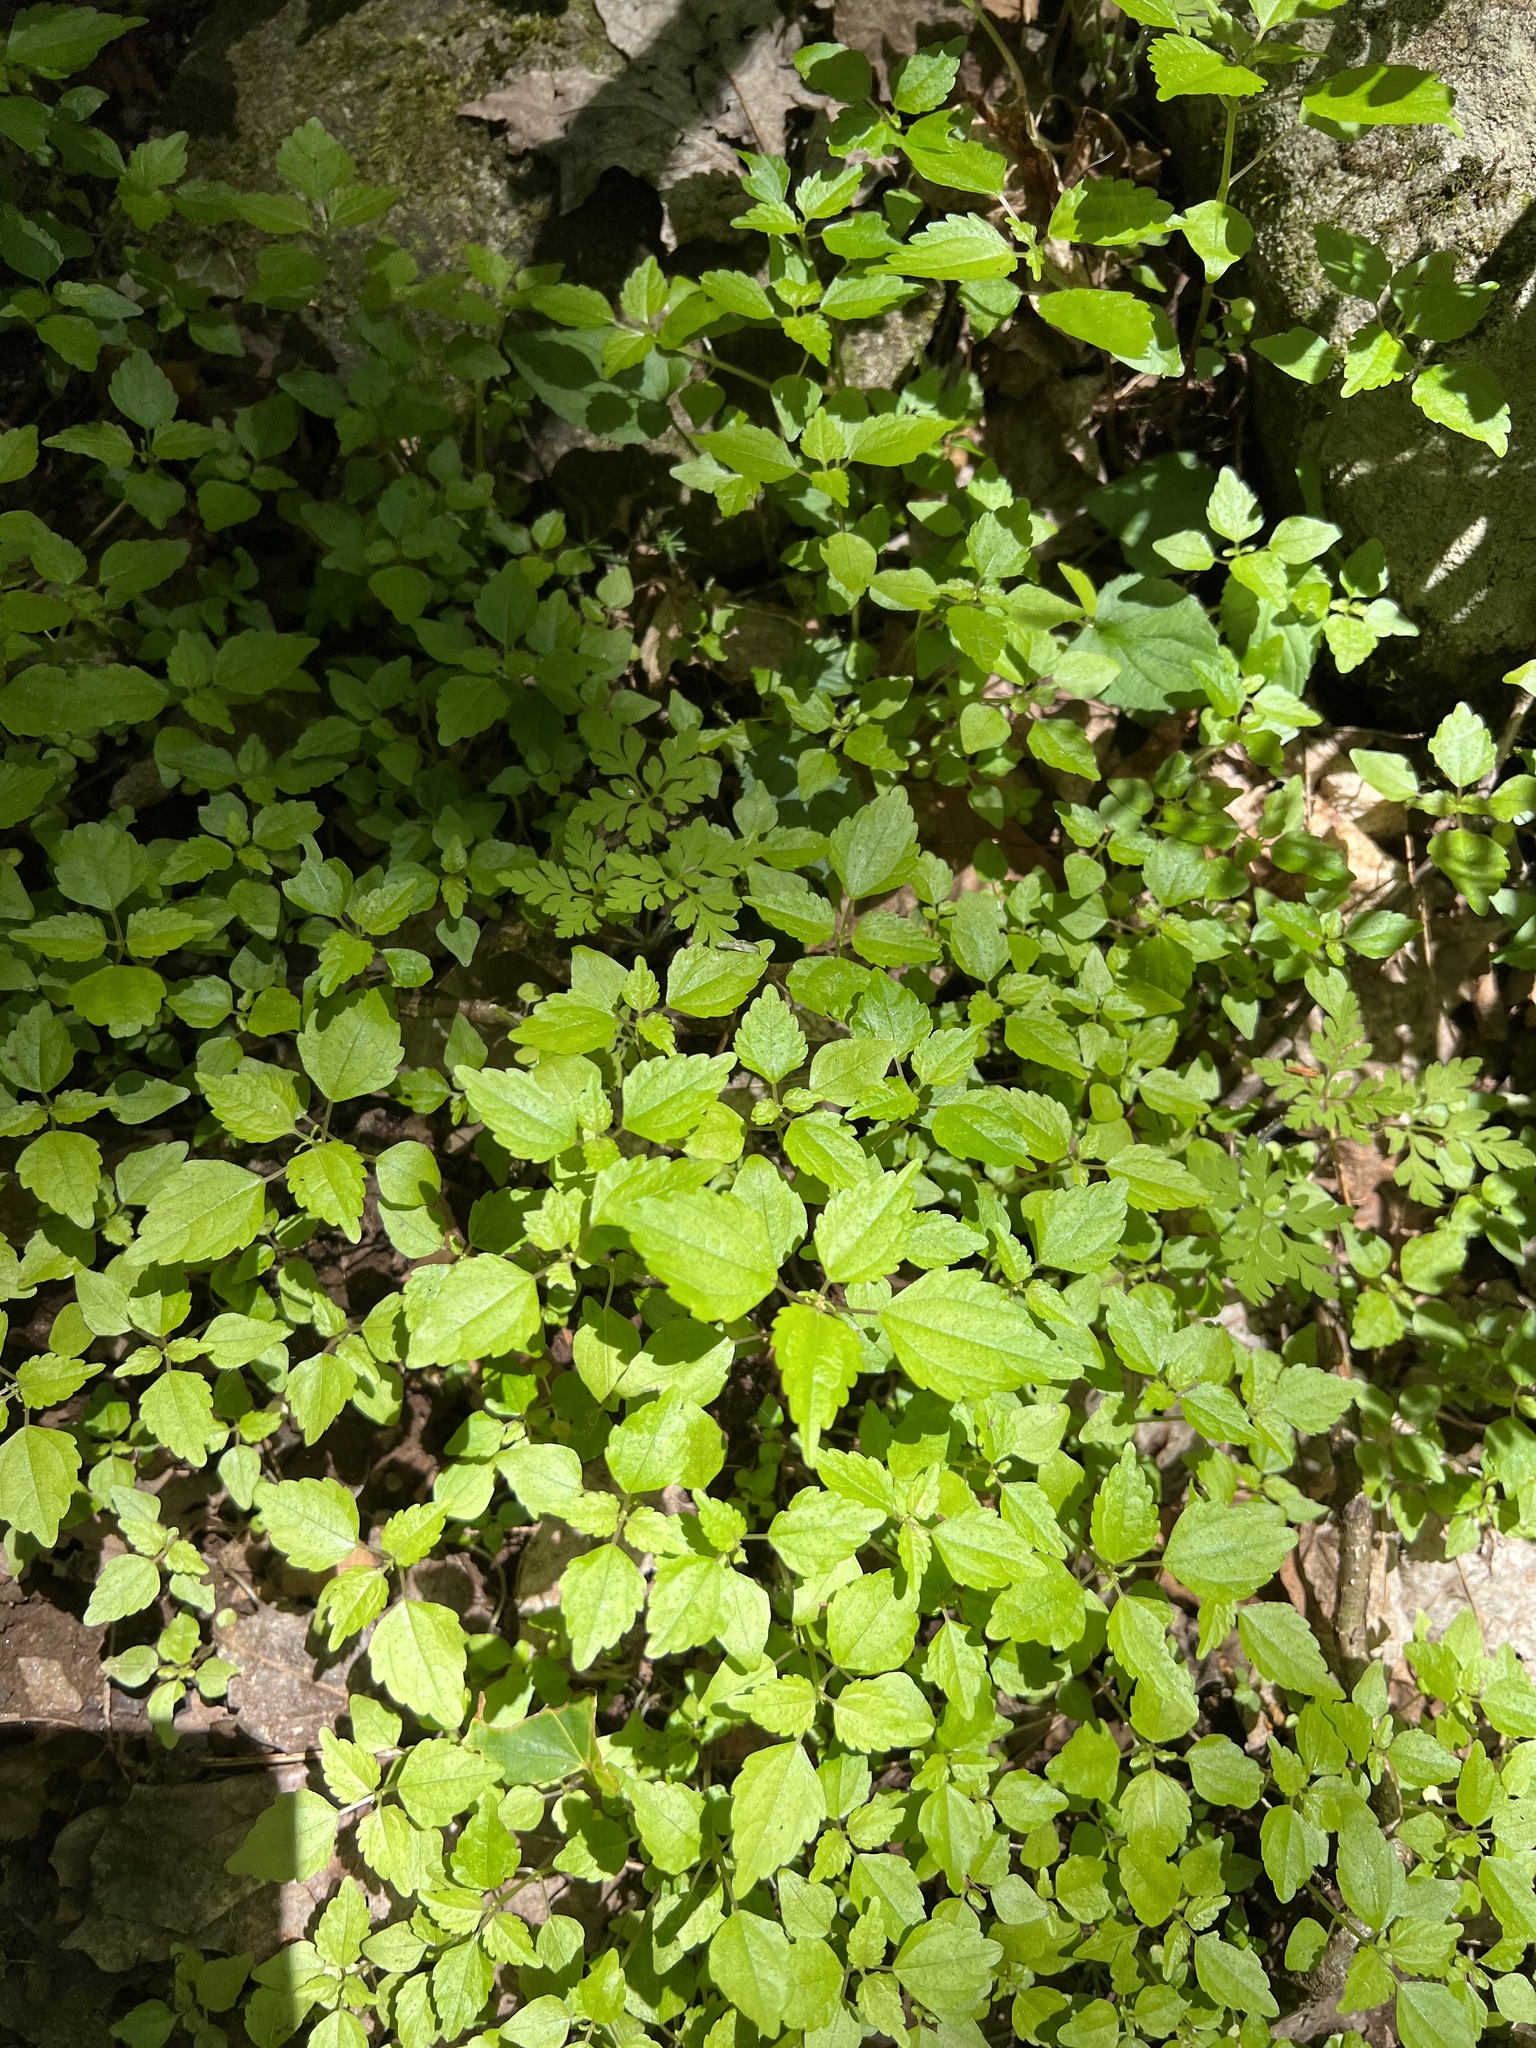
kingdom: Plantae
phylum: Tracheophyta
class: Magnoliopsida
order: Rosales
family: Urticaceae
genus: Pilea
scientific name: Pilea pumila
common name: Clearweed
